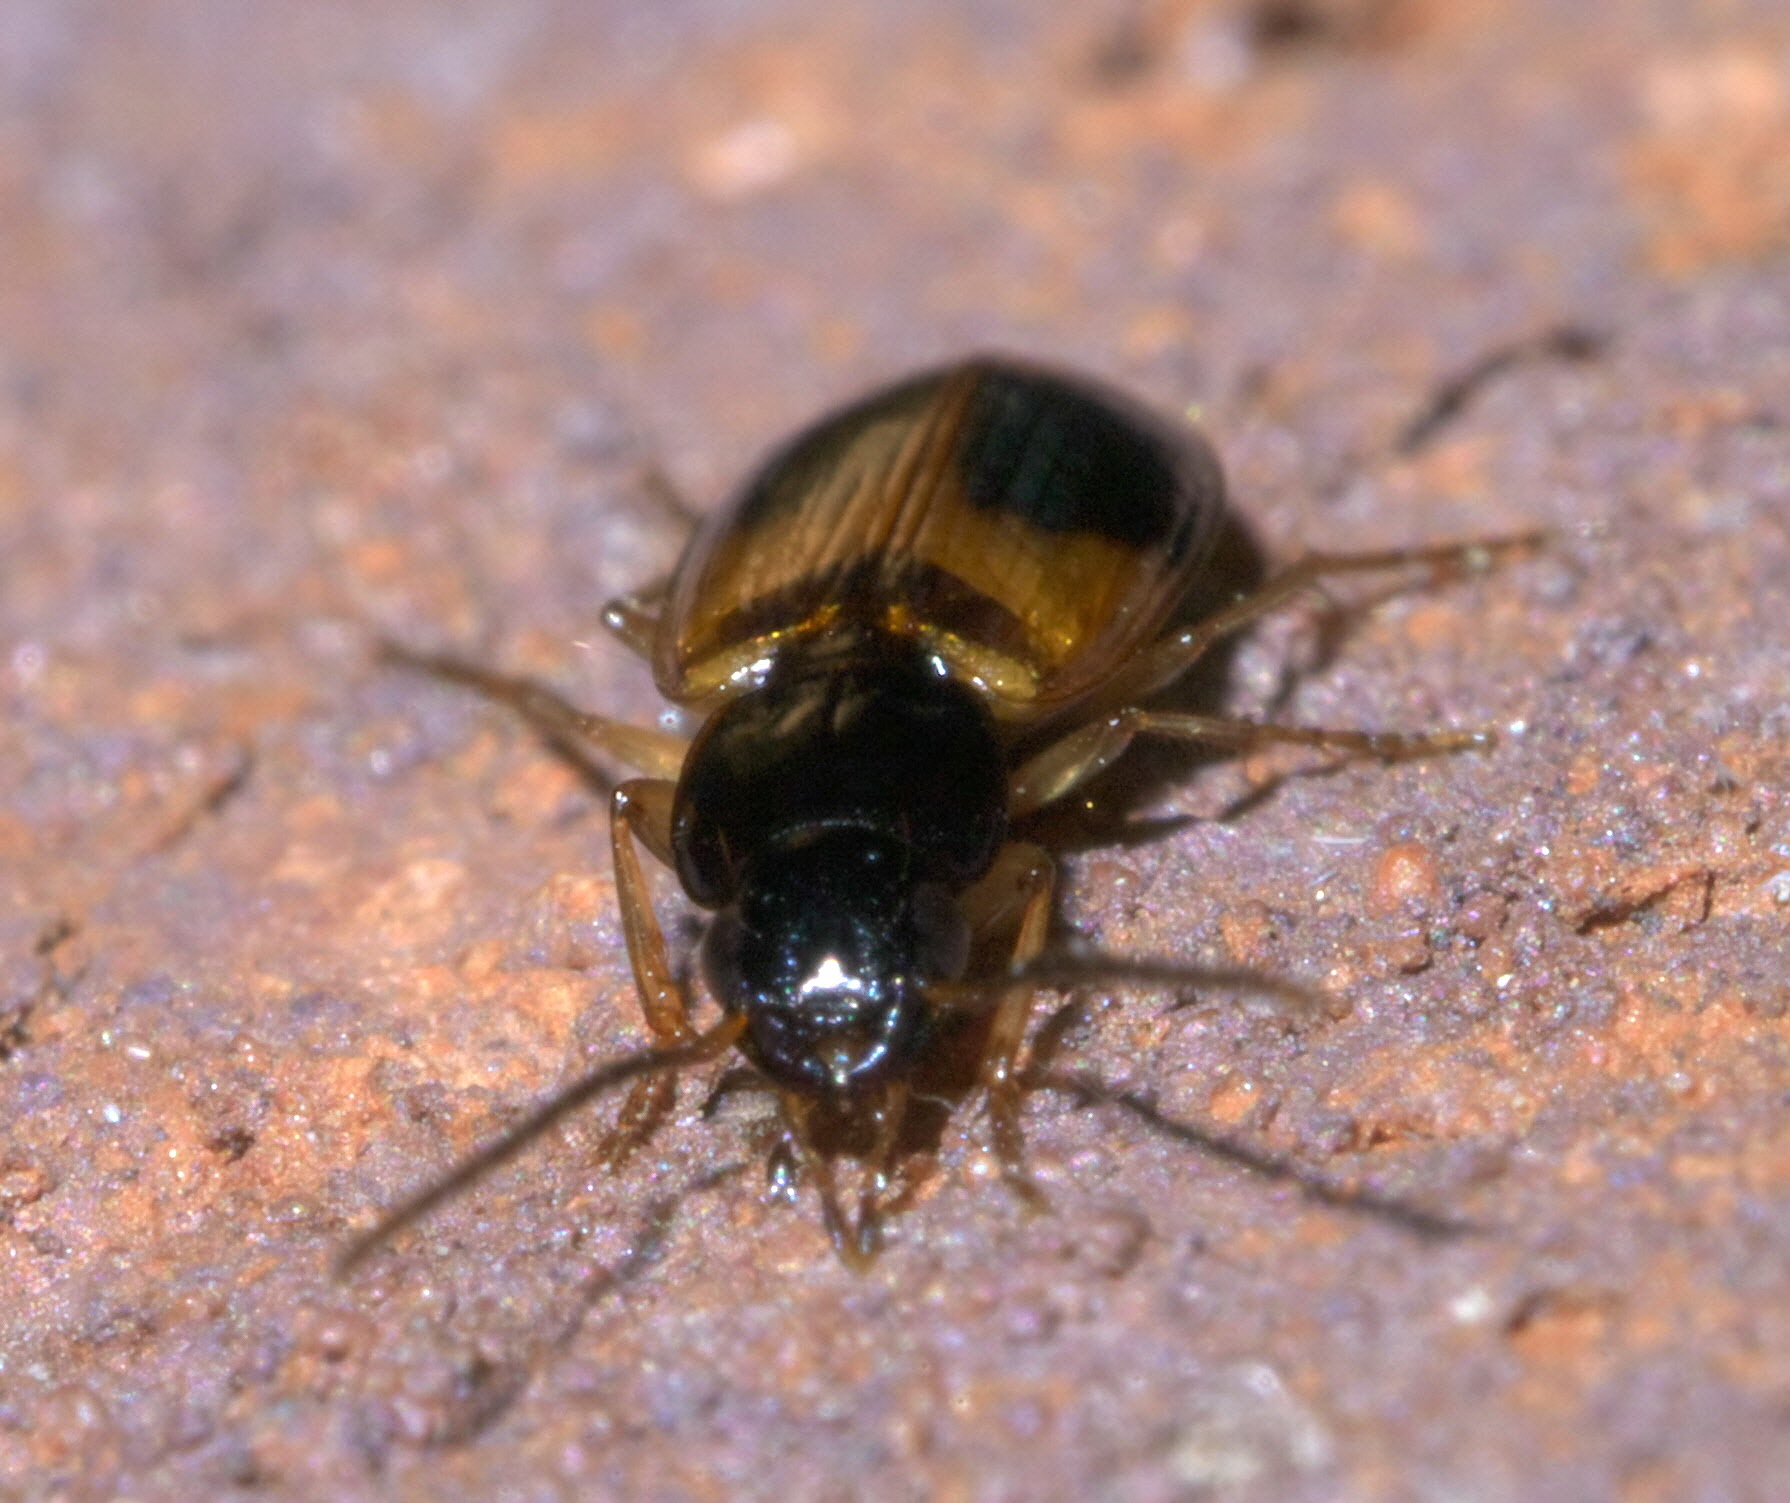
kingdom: Animalia
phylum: Arthropoda
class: Insecta
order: Coleoptera
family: Carabidae
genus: Badister
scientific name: Badister elegans
